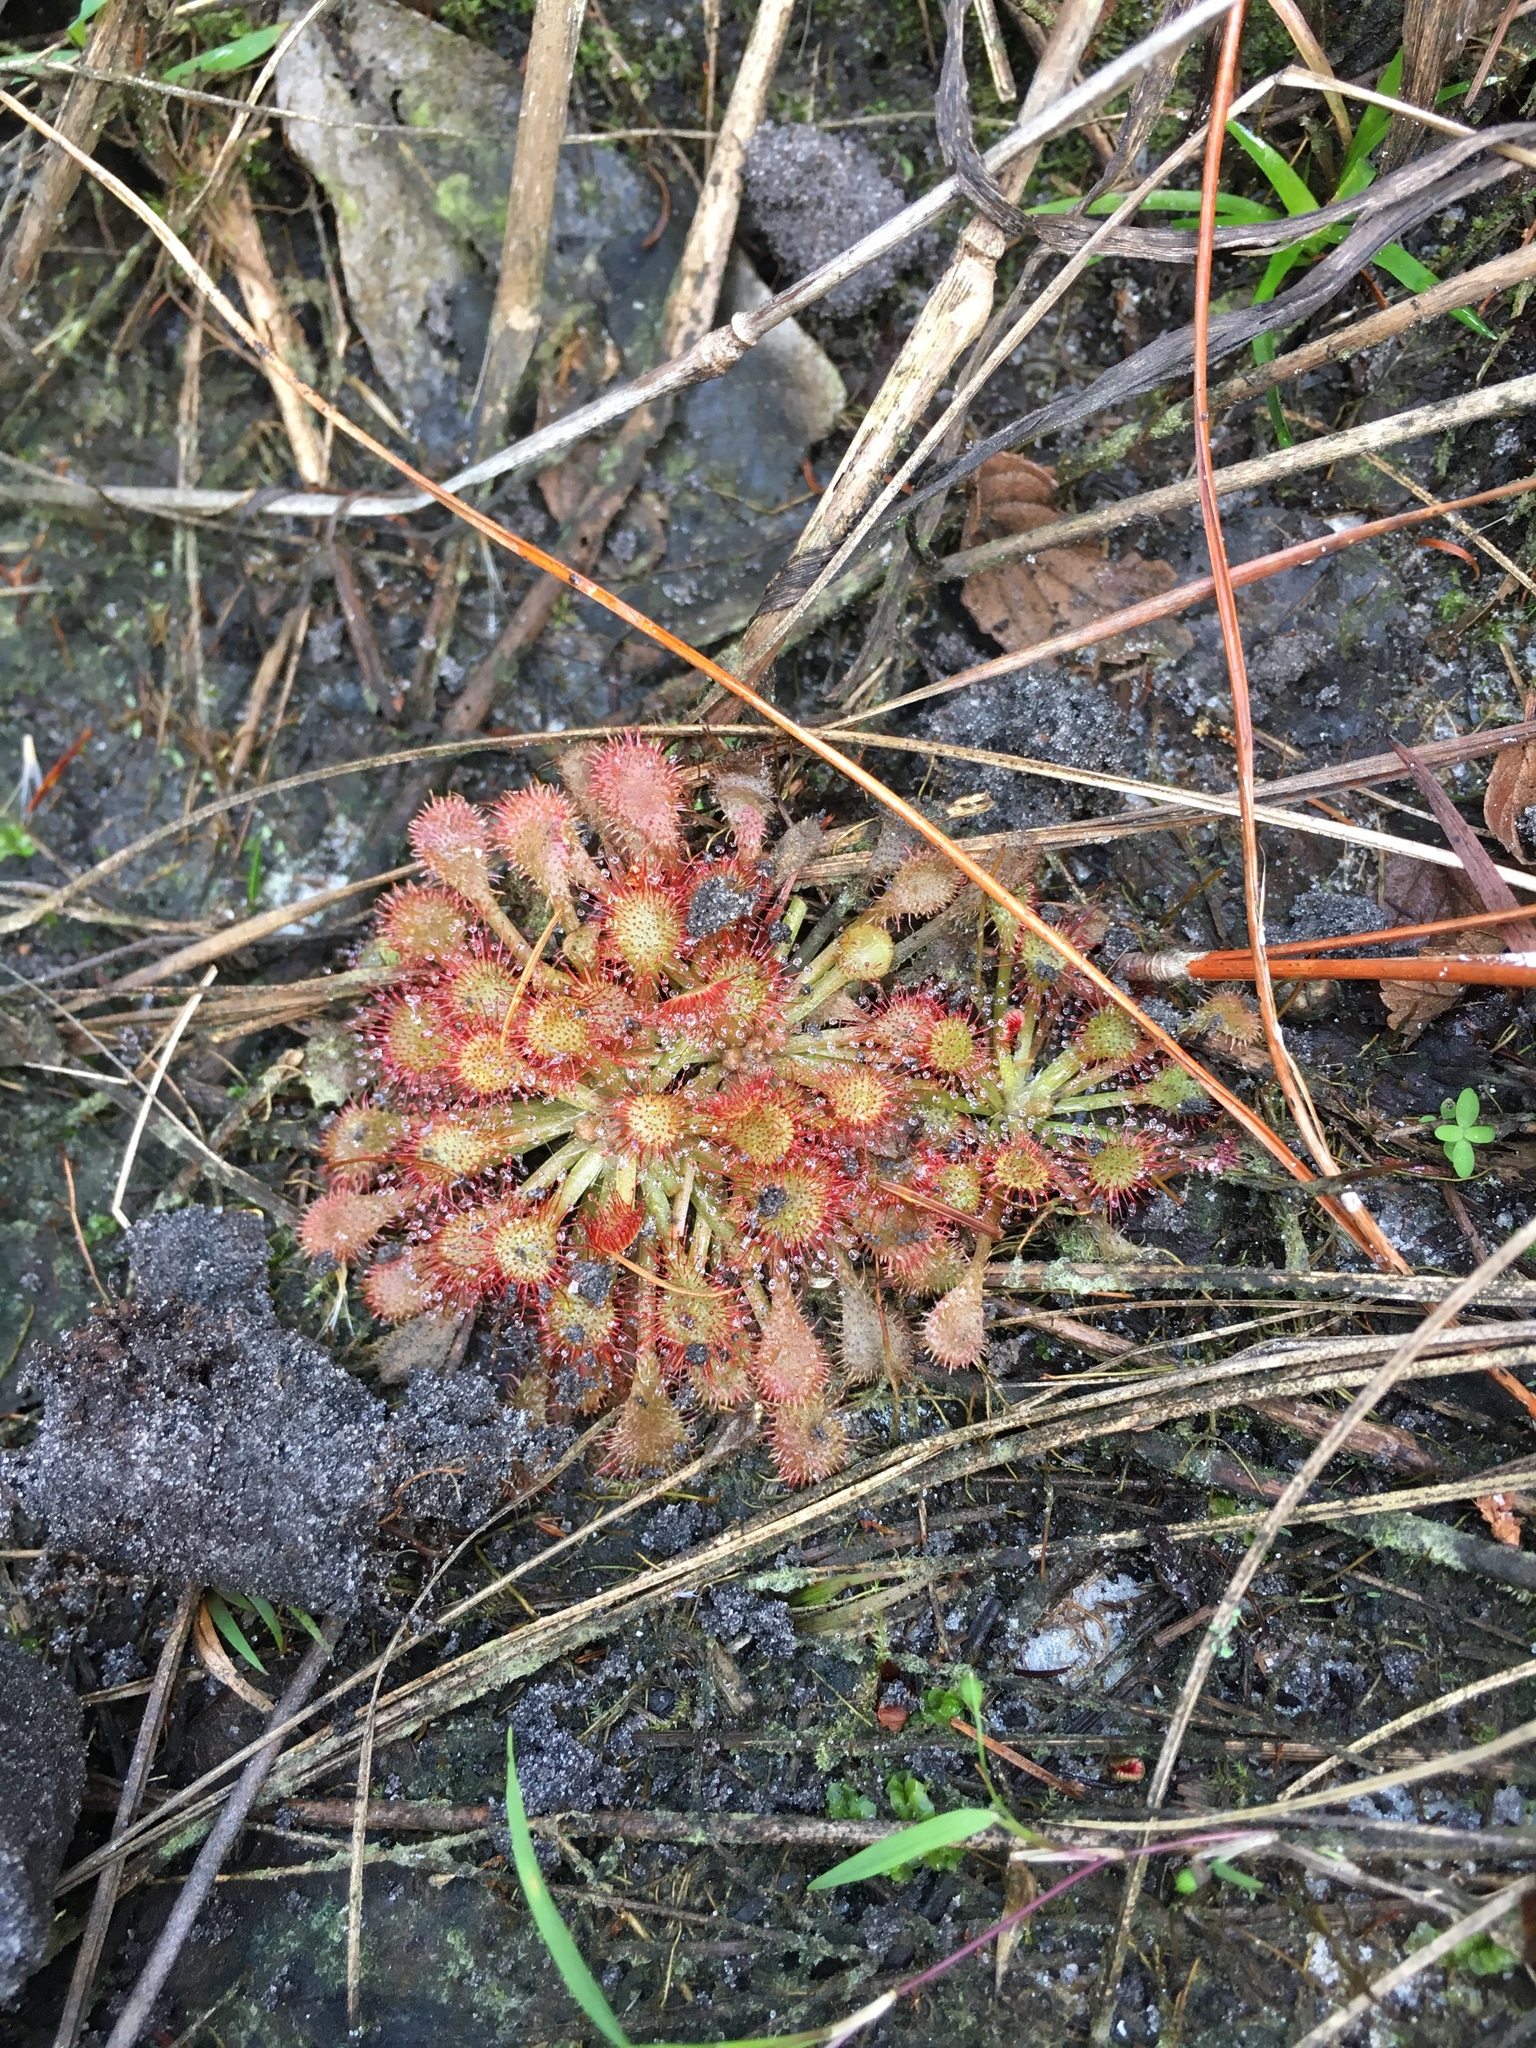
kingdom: Plantae
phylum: Tracheophyta
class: Magnoliopsida
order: Caryophyllales
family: Droseraceae
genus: Drosera
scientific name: Drosera capillaris
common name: Pink sundew
